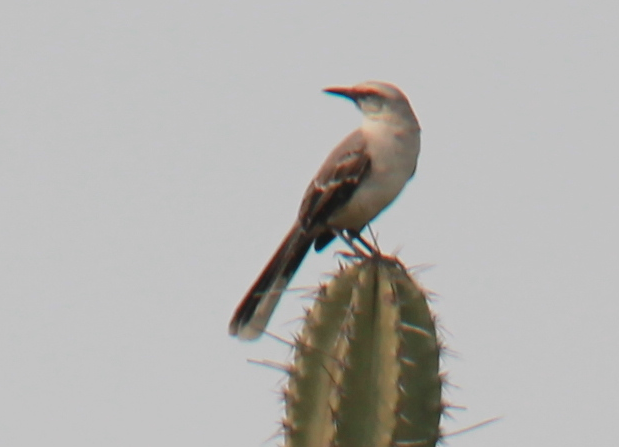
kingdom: Animalia
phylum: Chordata
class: Aves
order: Passeriformes
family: Mimidae
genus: Mimus
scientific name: Mimus gilvus
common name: Tropical mockingbird
